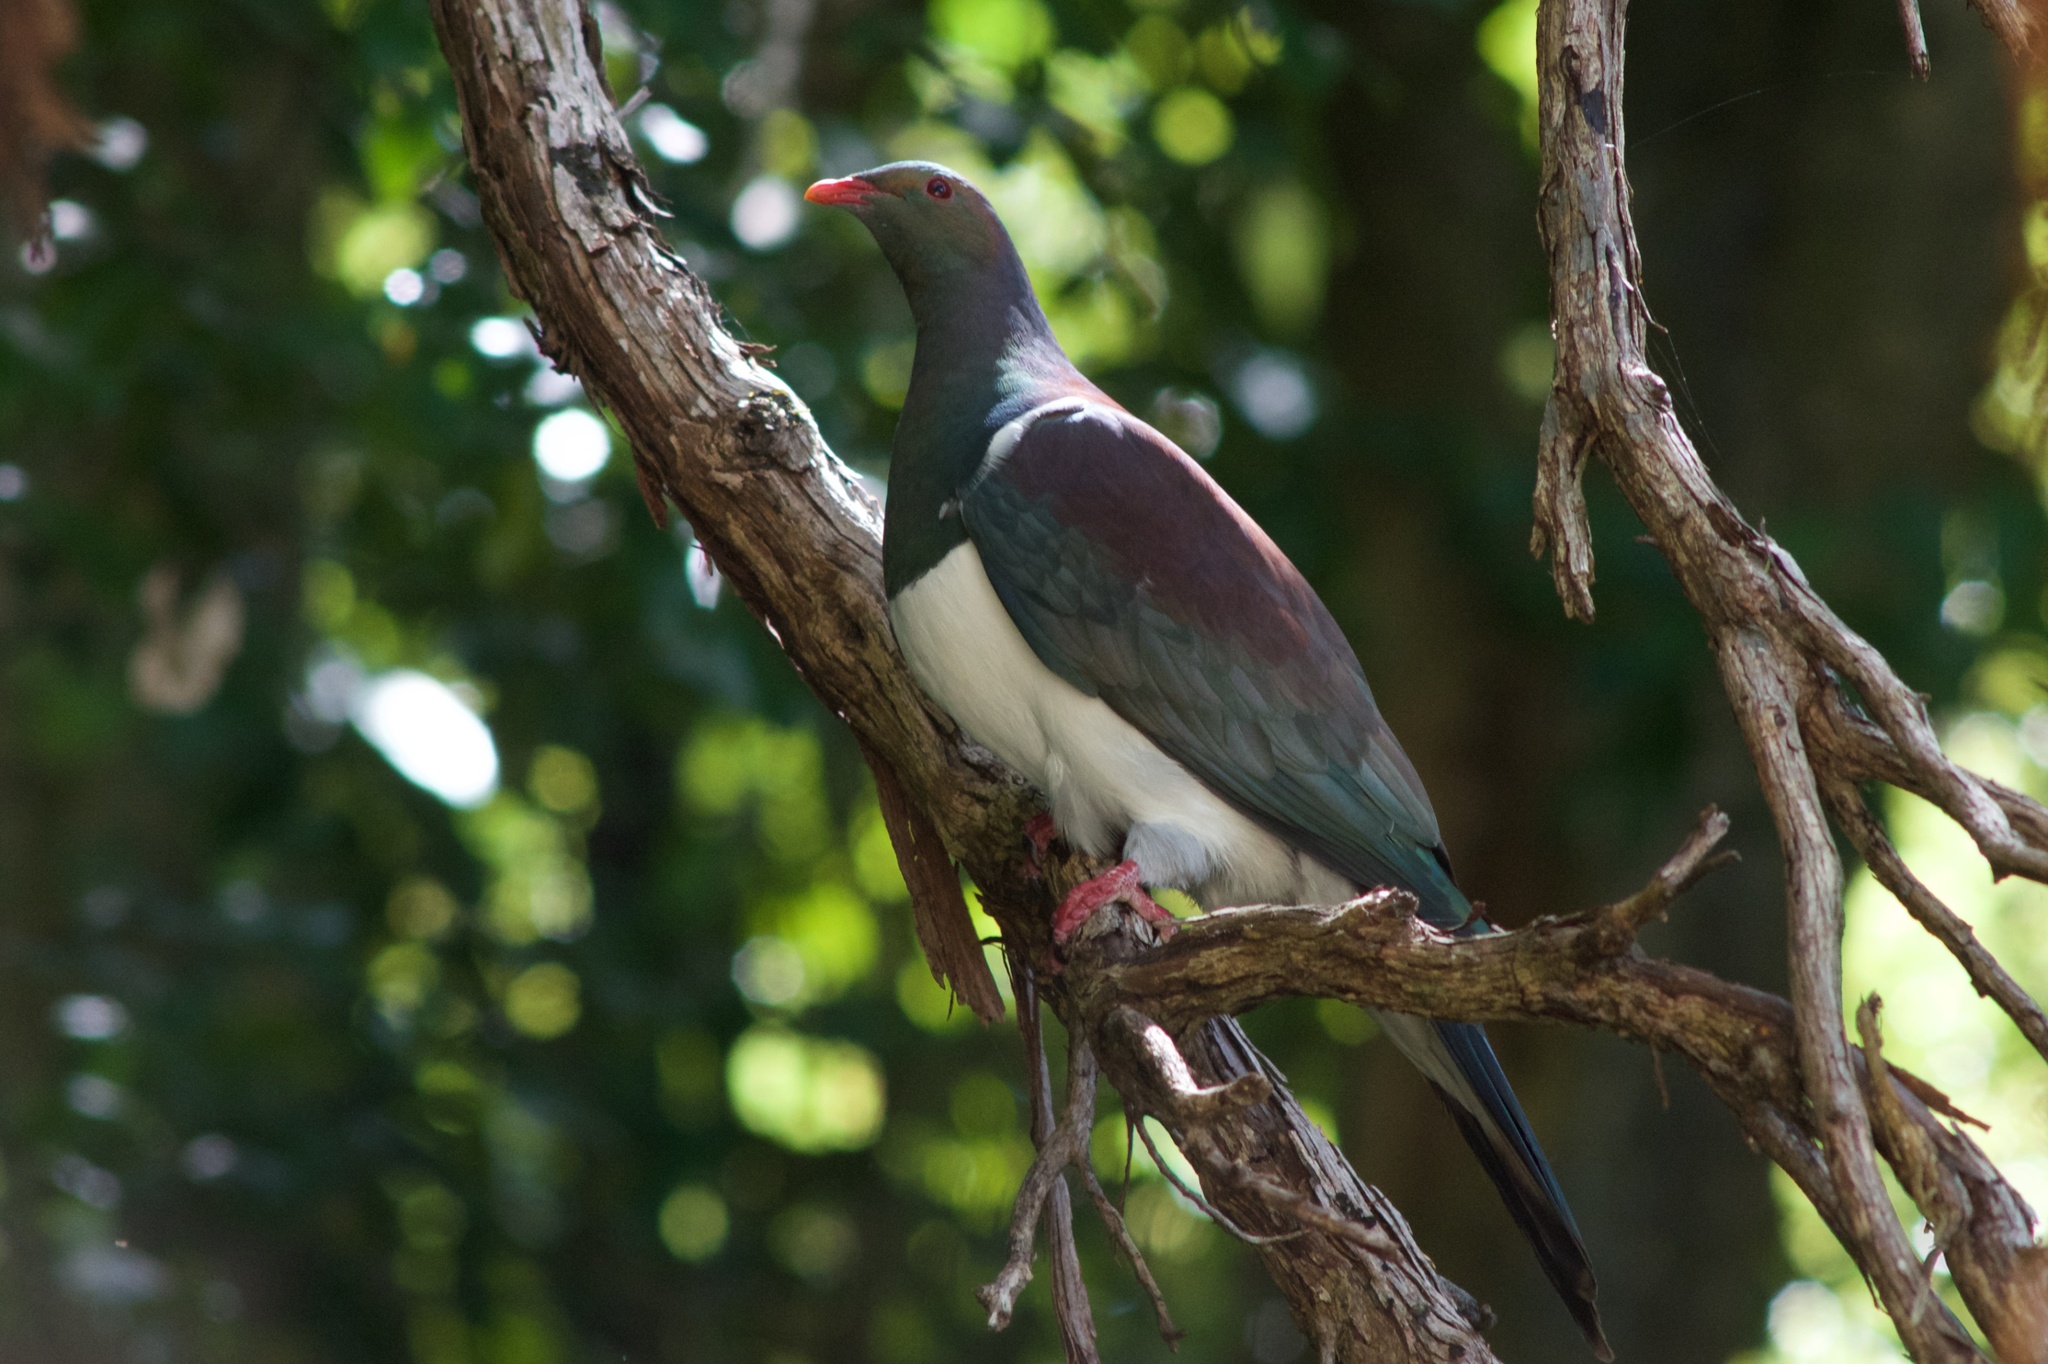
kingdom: Animalia
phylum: Chordata
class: Aves
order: Columbiformes
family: Columbidae
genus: Hemiphaga
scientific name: Hemiphaga novaeseelandiae
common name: New zealand pigeon
